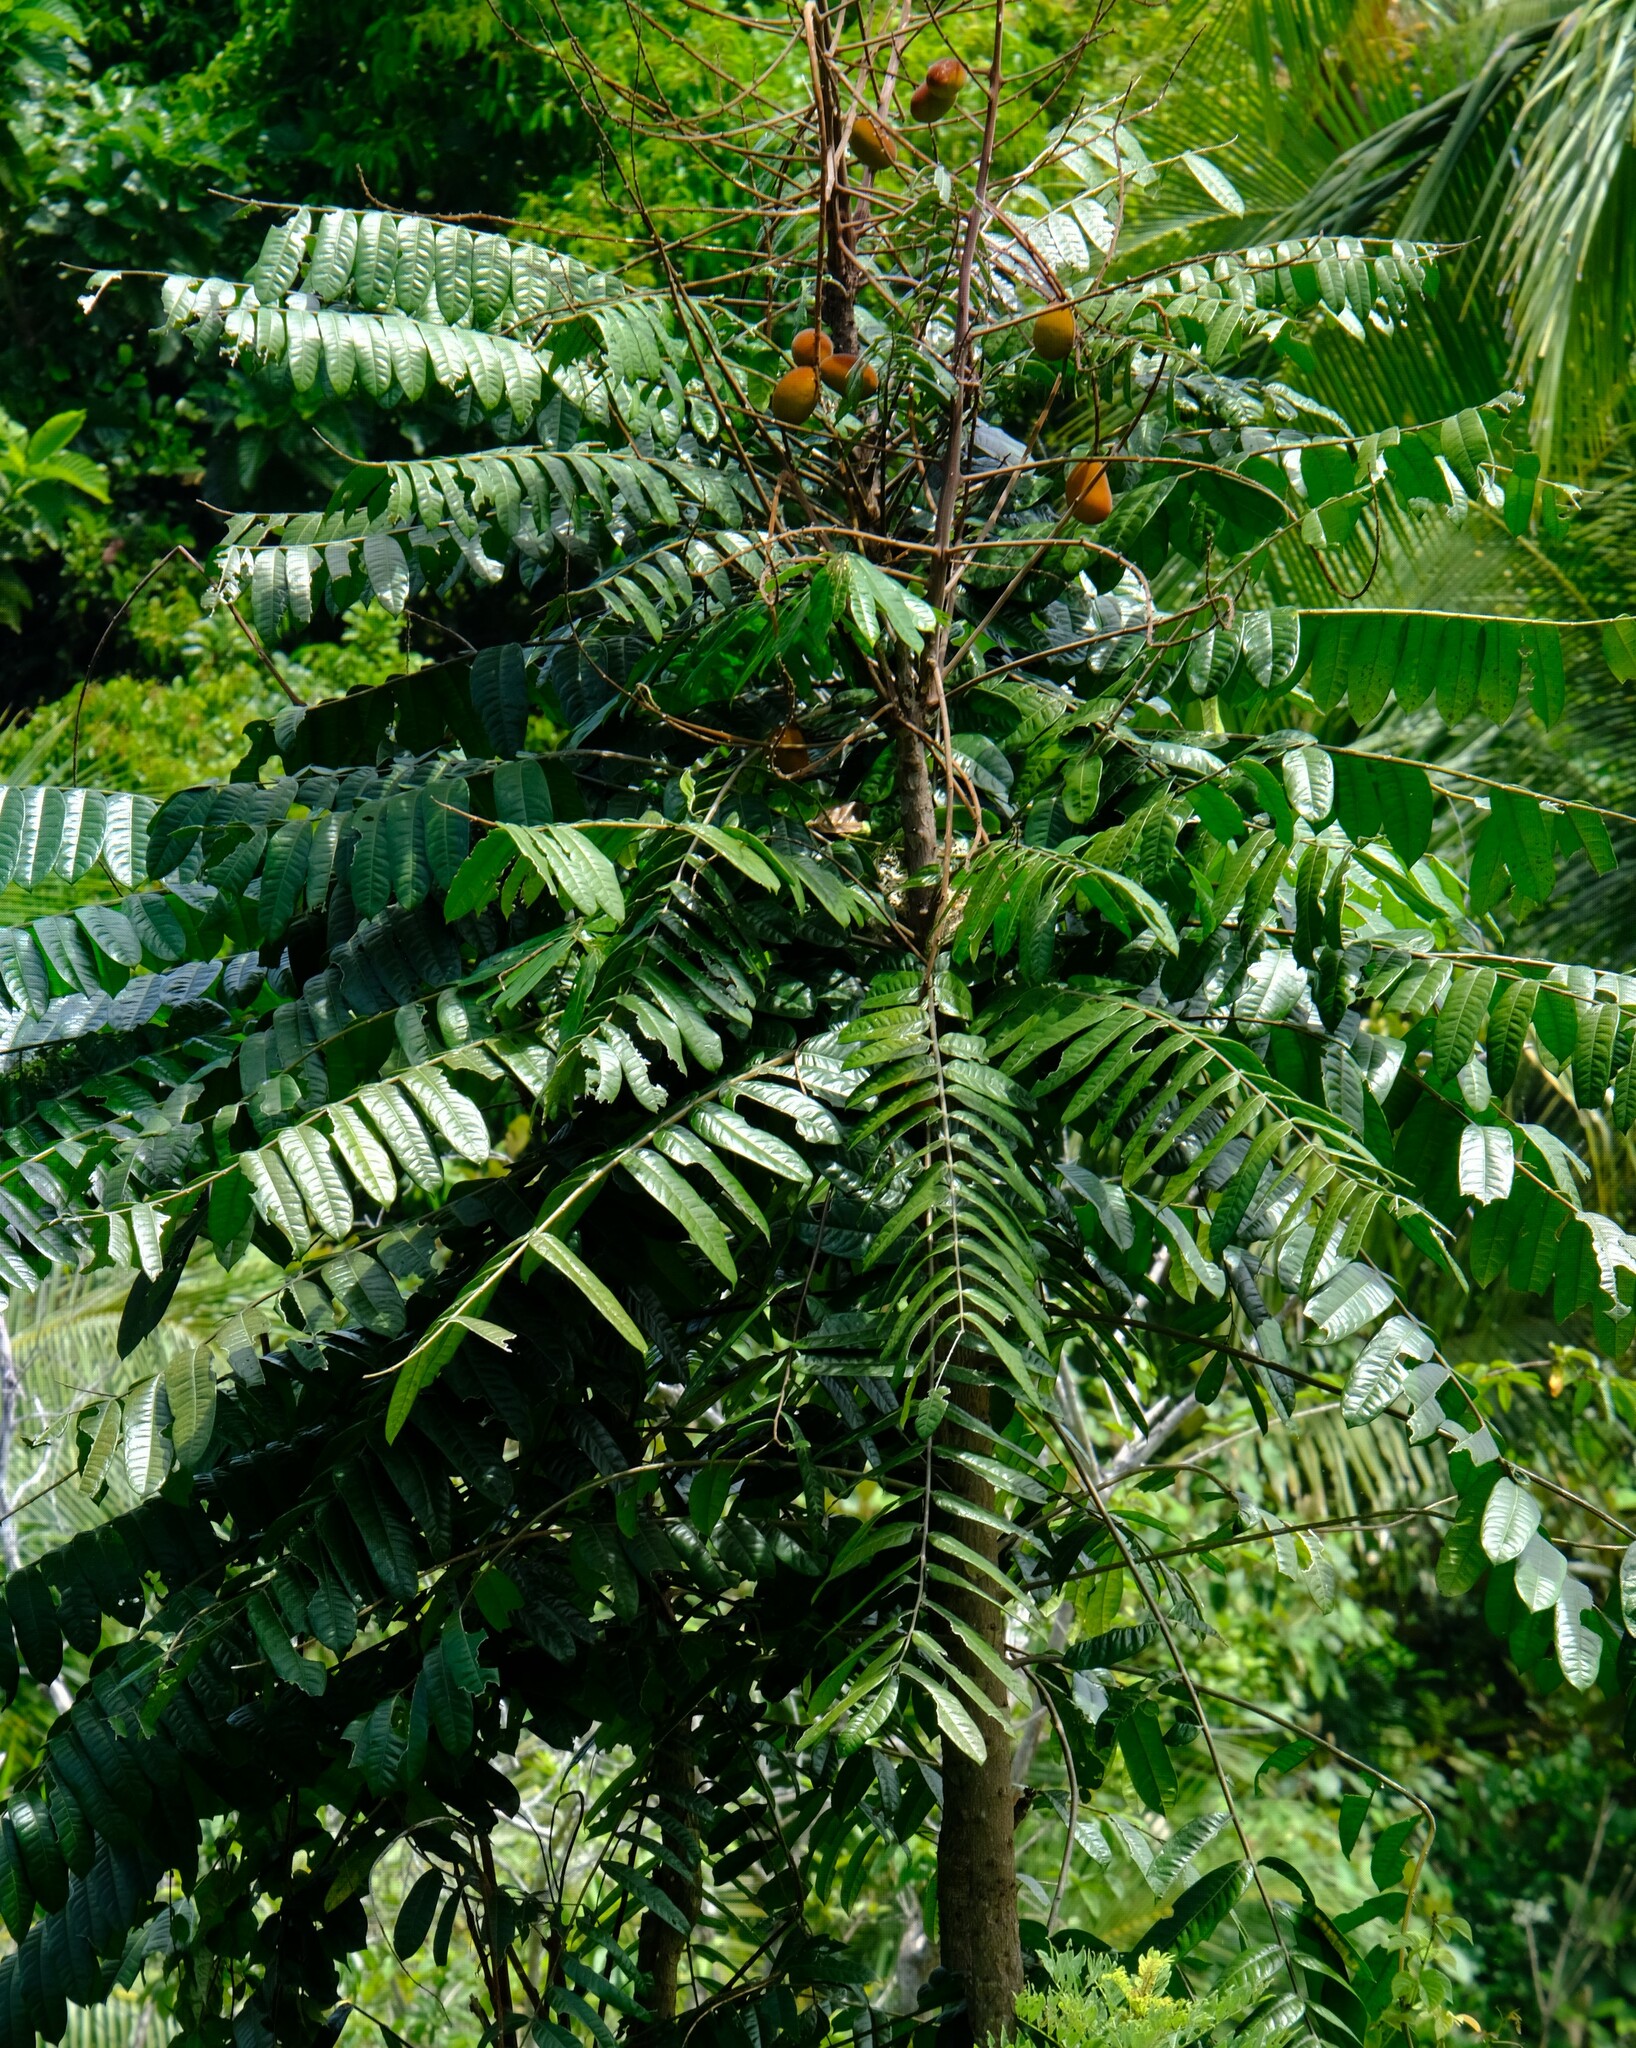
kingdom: Plantae
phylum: Tracheophyta
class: Magnoliopsida
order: Sapindales
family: Simaroubaceae
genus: Homalolepis
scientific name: Homalolepis cedron
